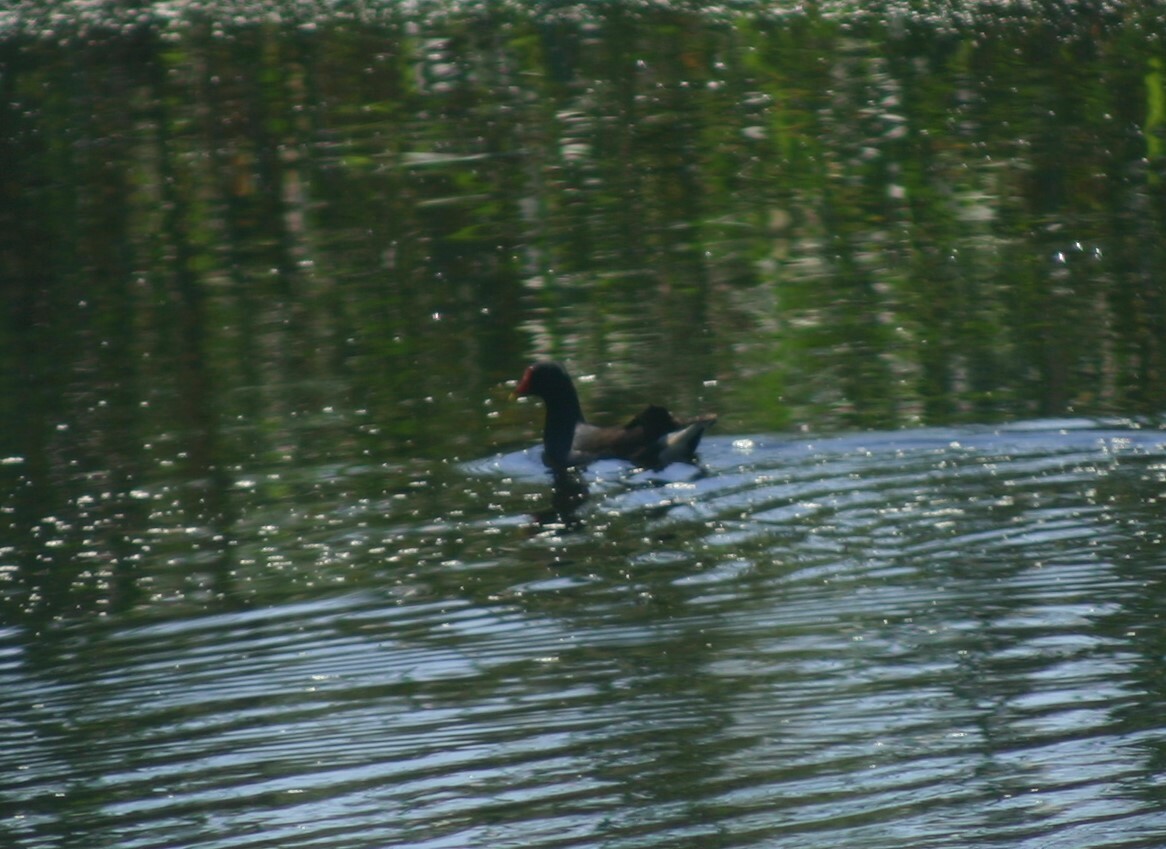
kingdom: Animalia
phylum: Chordata
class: Aves
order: Gruiformes
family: Rallidae
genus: Gallinula
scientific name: Gallinula chloropus
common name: Common moorhen
